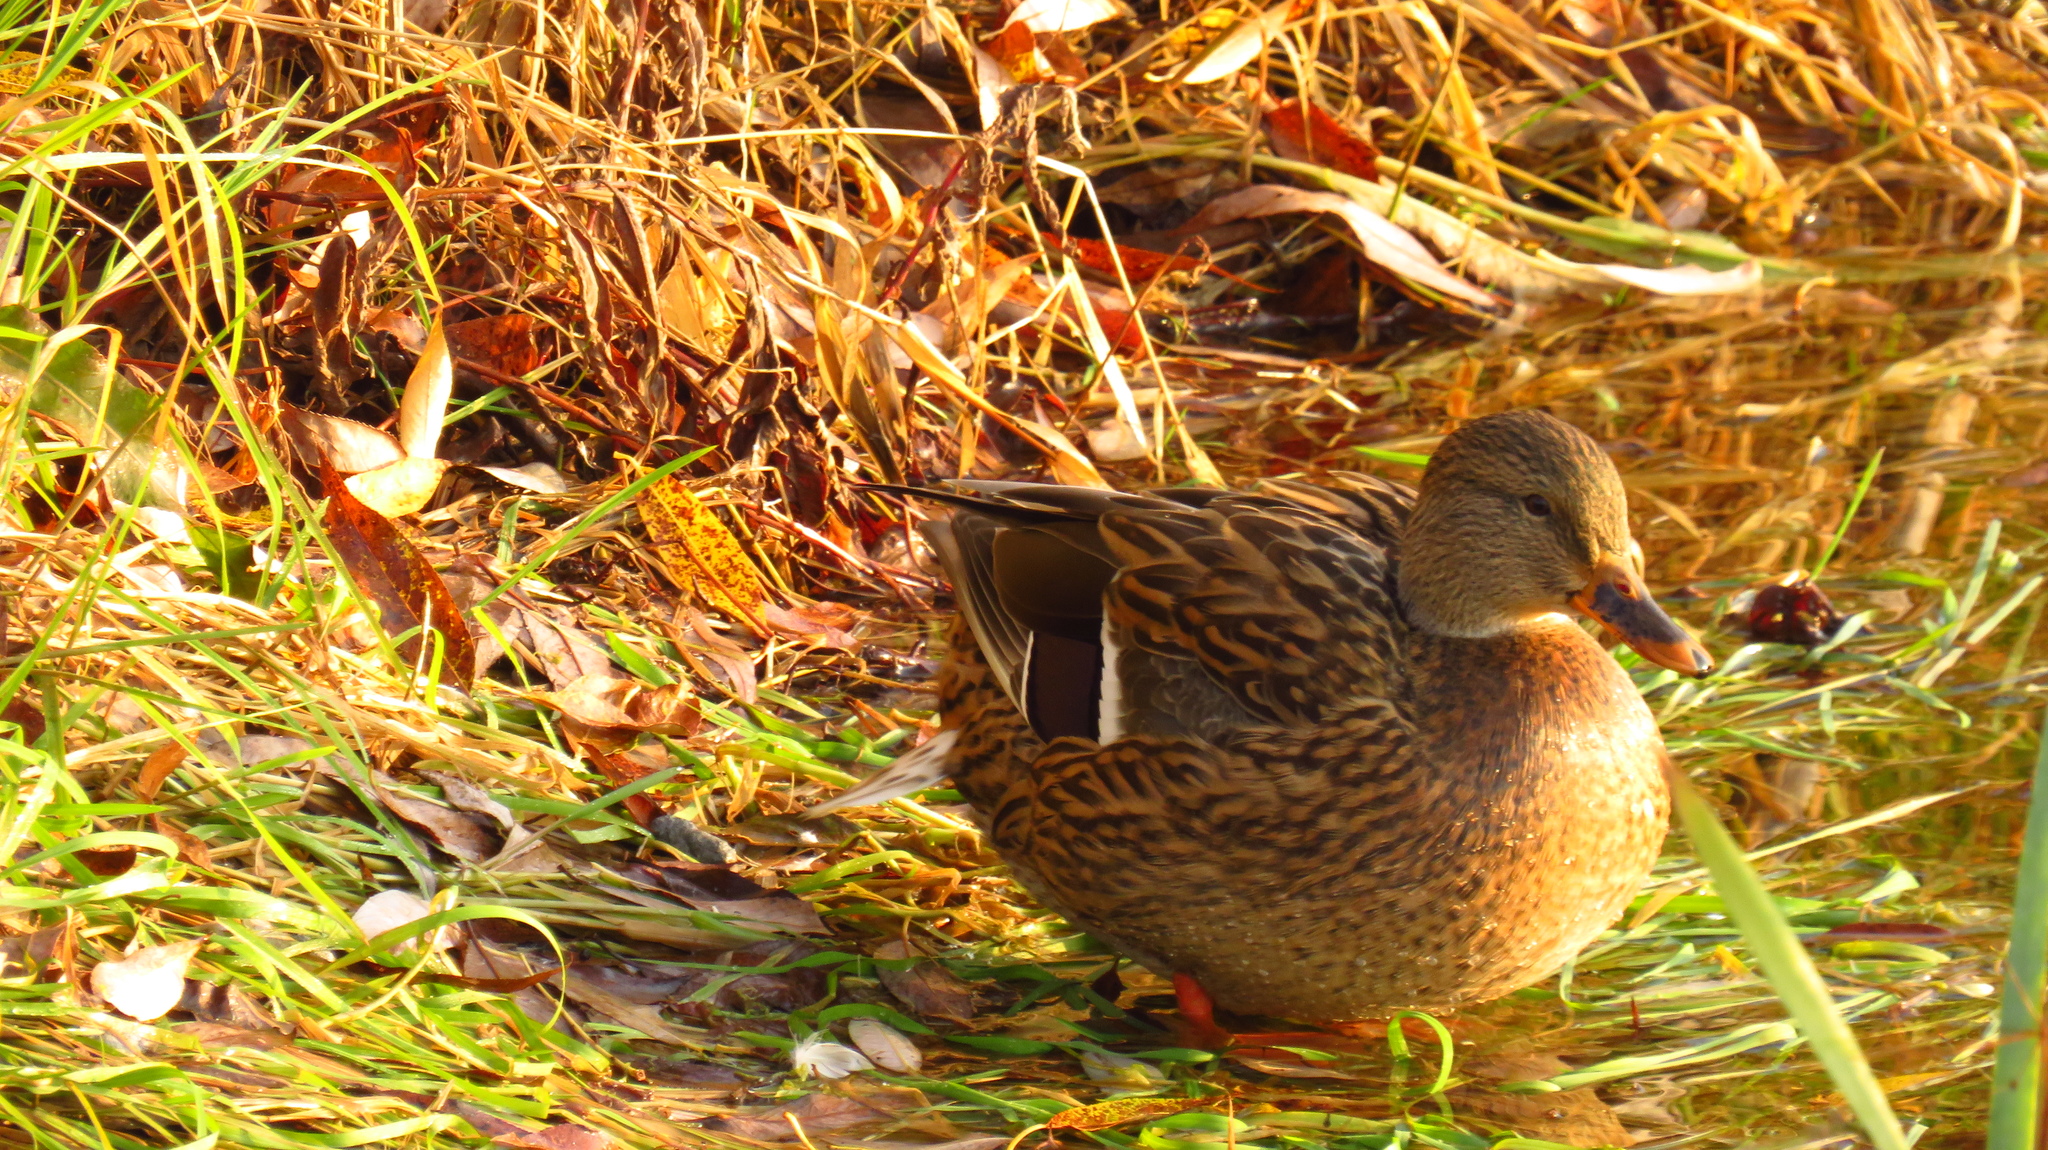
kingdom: Animalia
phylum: Chordata
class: Aves
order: Anseriformes
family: Anatidae
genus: Anas
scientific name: Anas platyrhynchos
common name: Mallard
